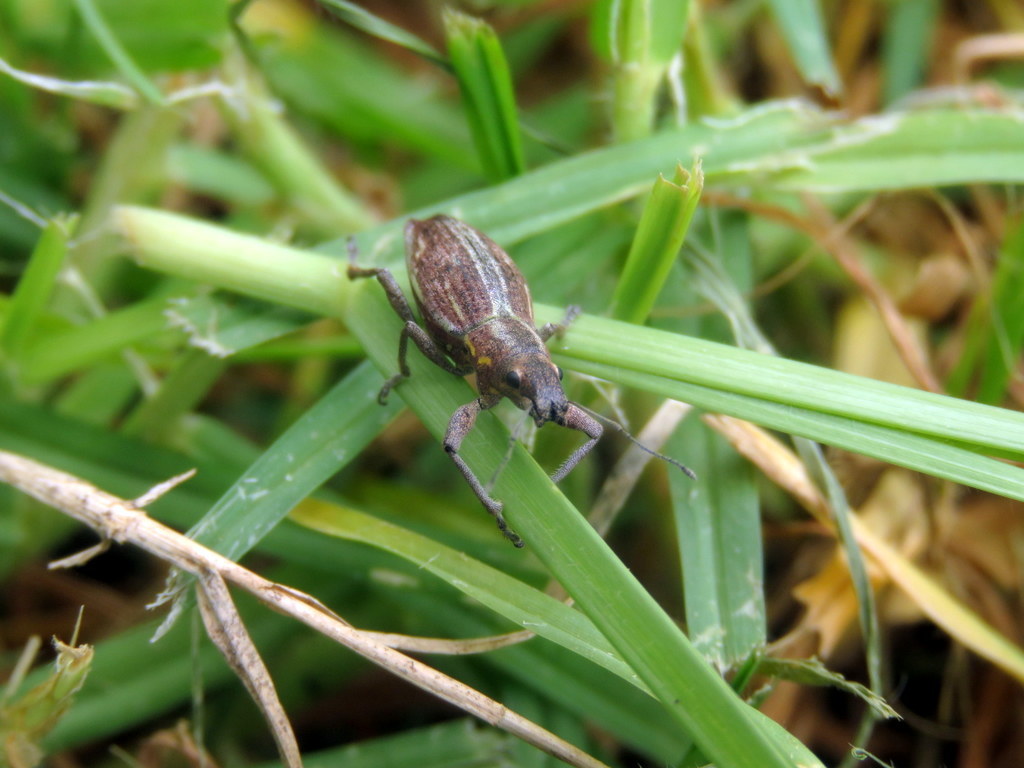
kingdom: Animalia
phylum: Arthropoda
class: Insecta
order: Coleoptera
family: Curculionidae
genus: Naupactus
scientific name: Naupactus xanthographus
